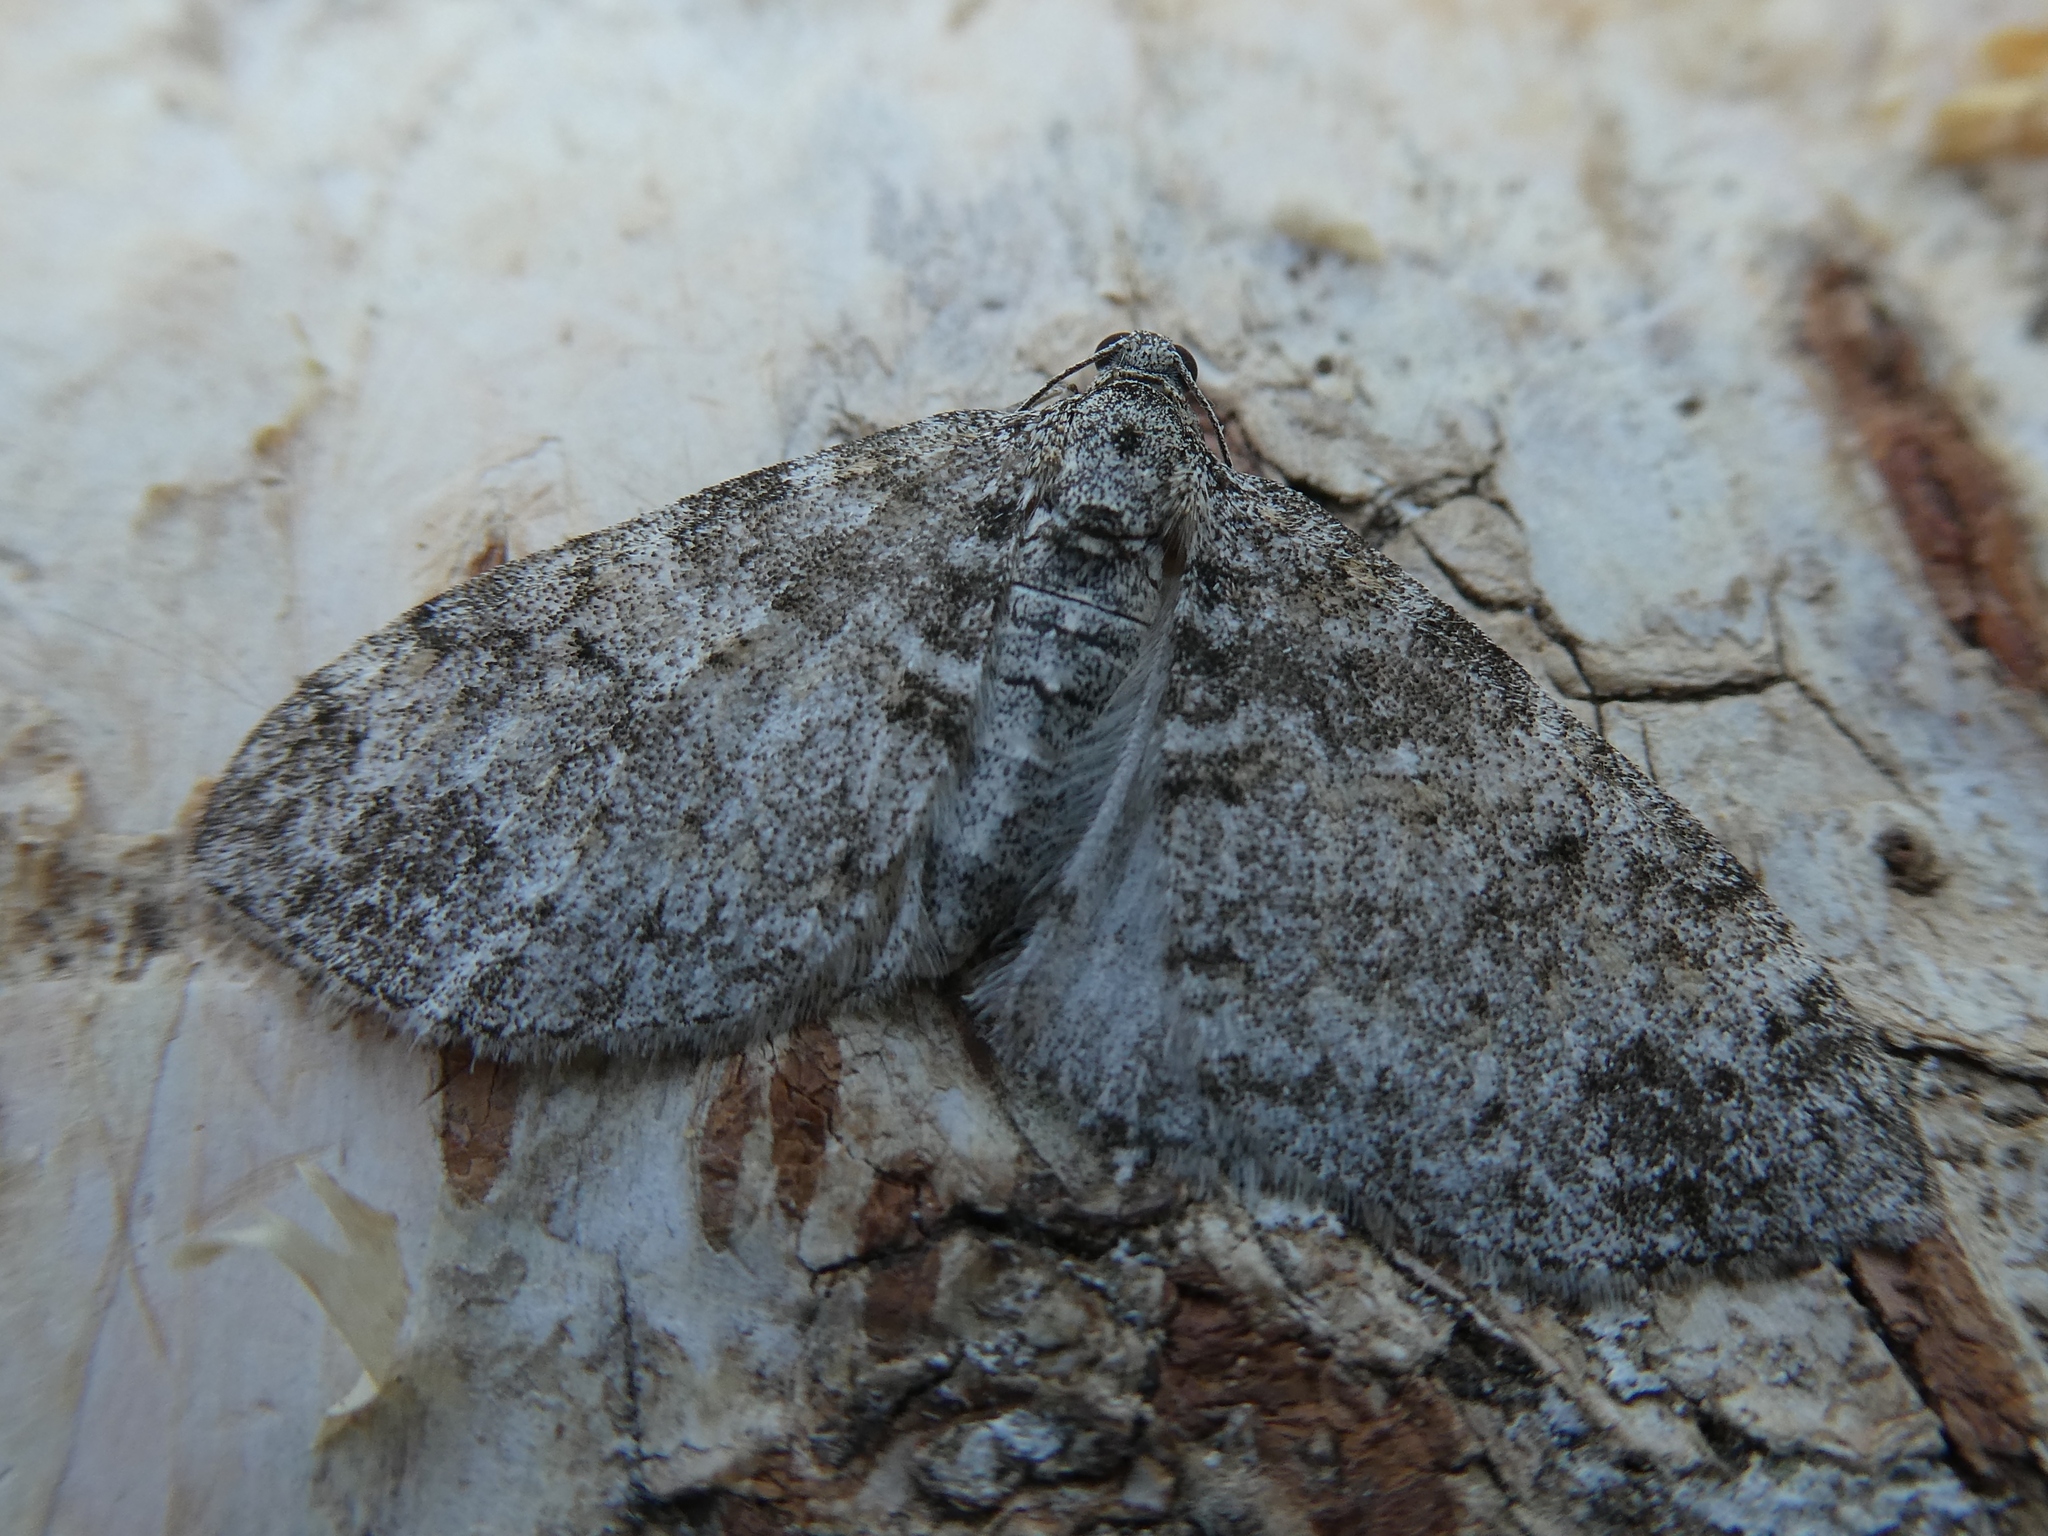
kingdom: Animalia
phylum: Arthropoda
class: Insecta
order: Lepidoptera
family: Geometridae
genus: Lobophora
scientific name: Lobophora halterata
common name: Seraphim
